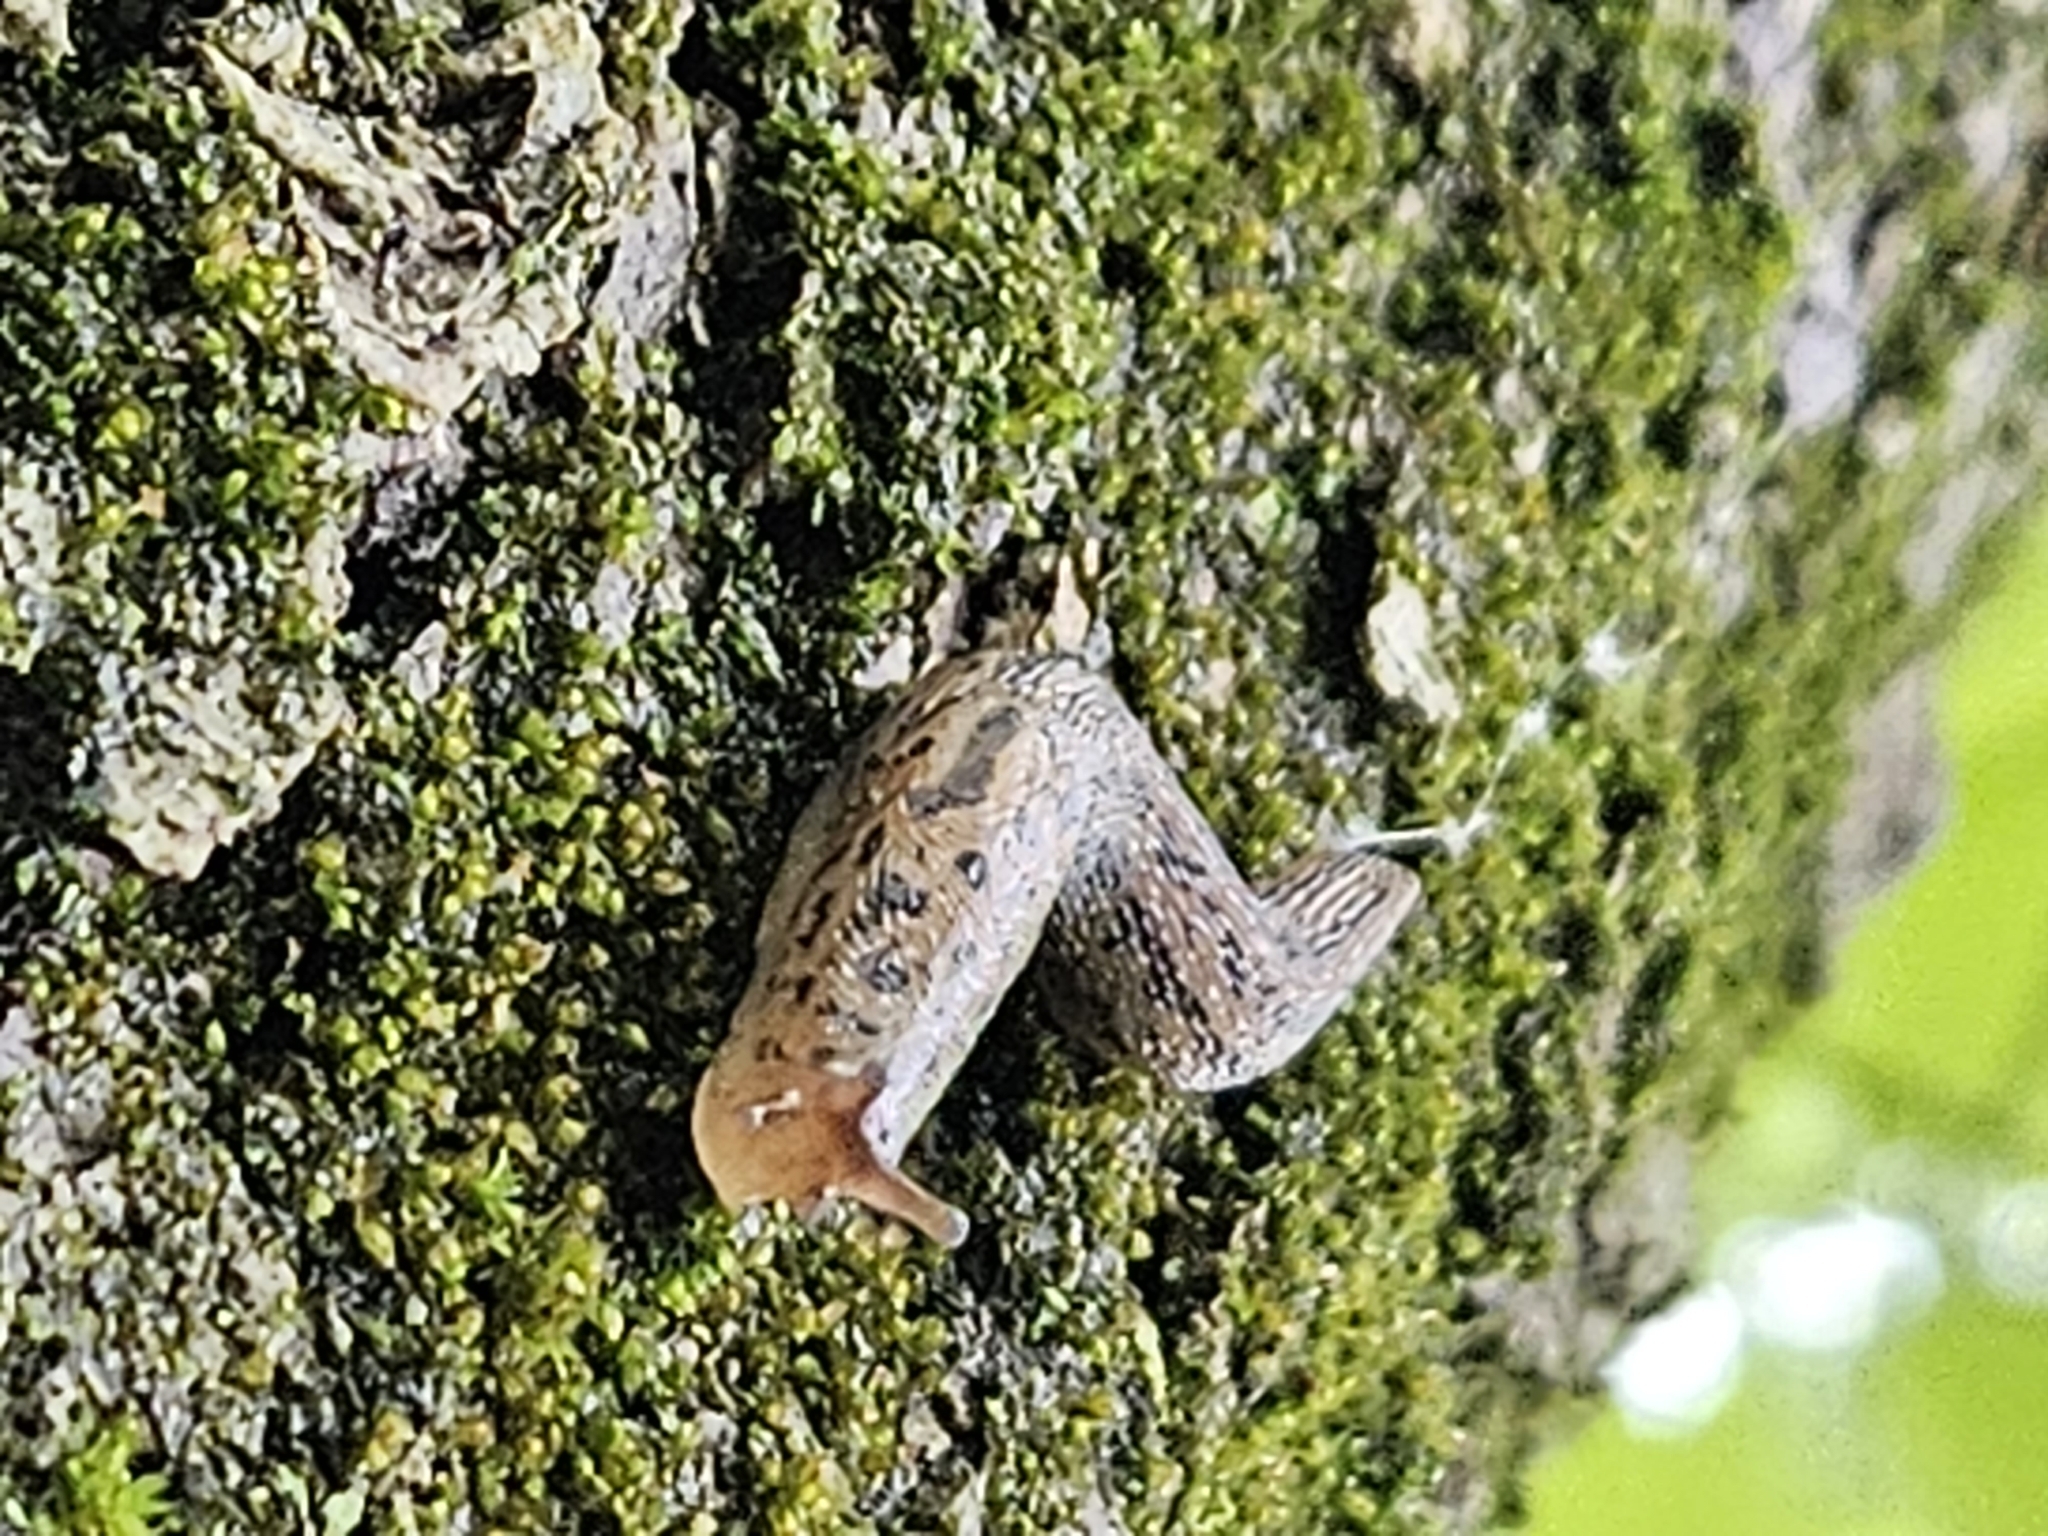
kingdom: Animalia
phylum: Mollusca
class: Gastropoda
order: Stylommatophora
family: Limacidae
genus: Limax
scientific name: Limax maximus
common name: Great grey slug
